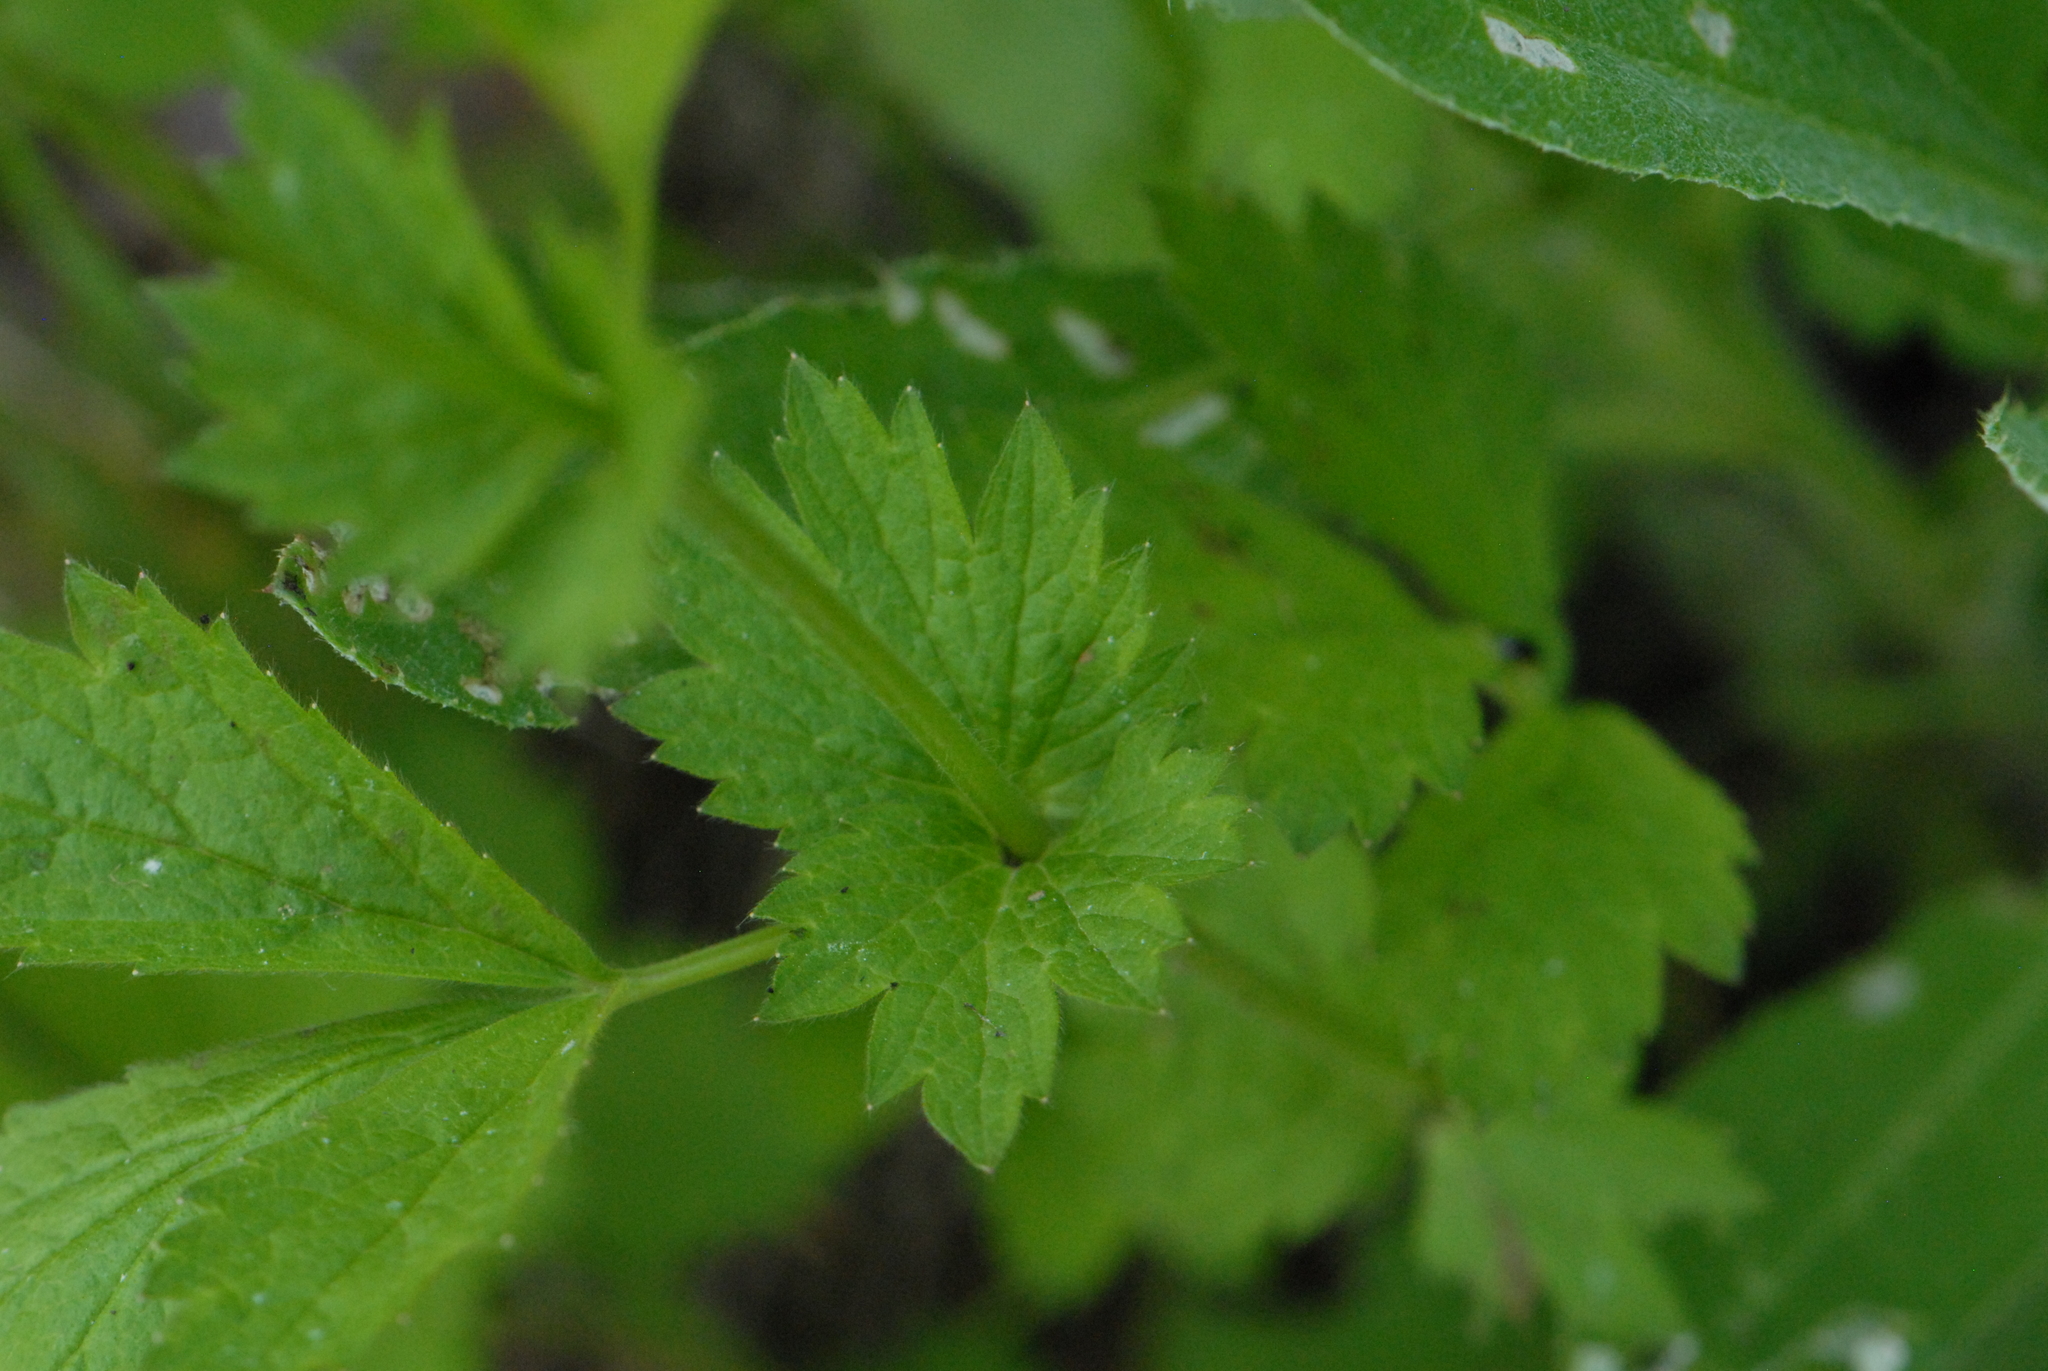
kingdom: Plantae
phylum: Tracheophyta
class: Magnoliopsida
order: Rosales
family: Rosaceae
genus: Geum
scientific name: Geum urbanum
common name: Wood avens
